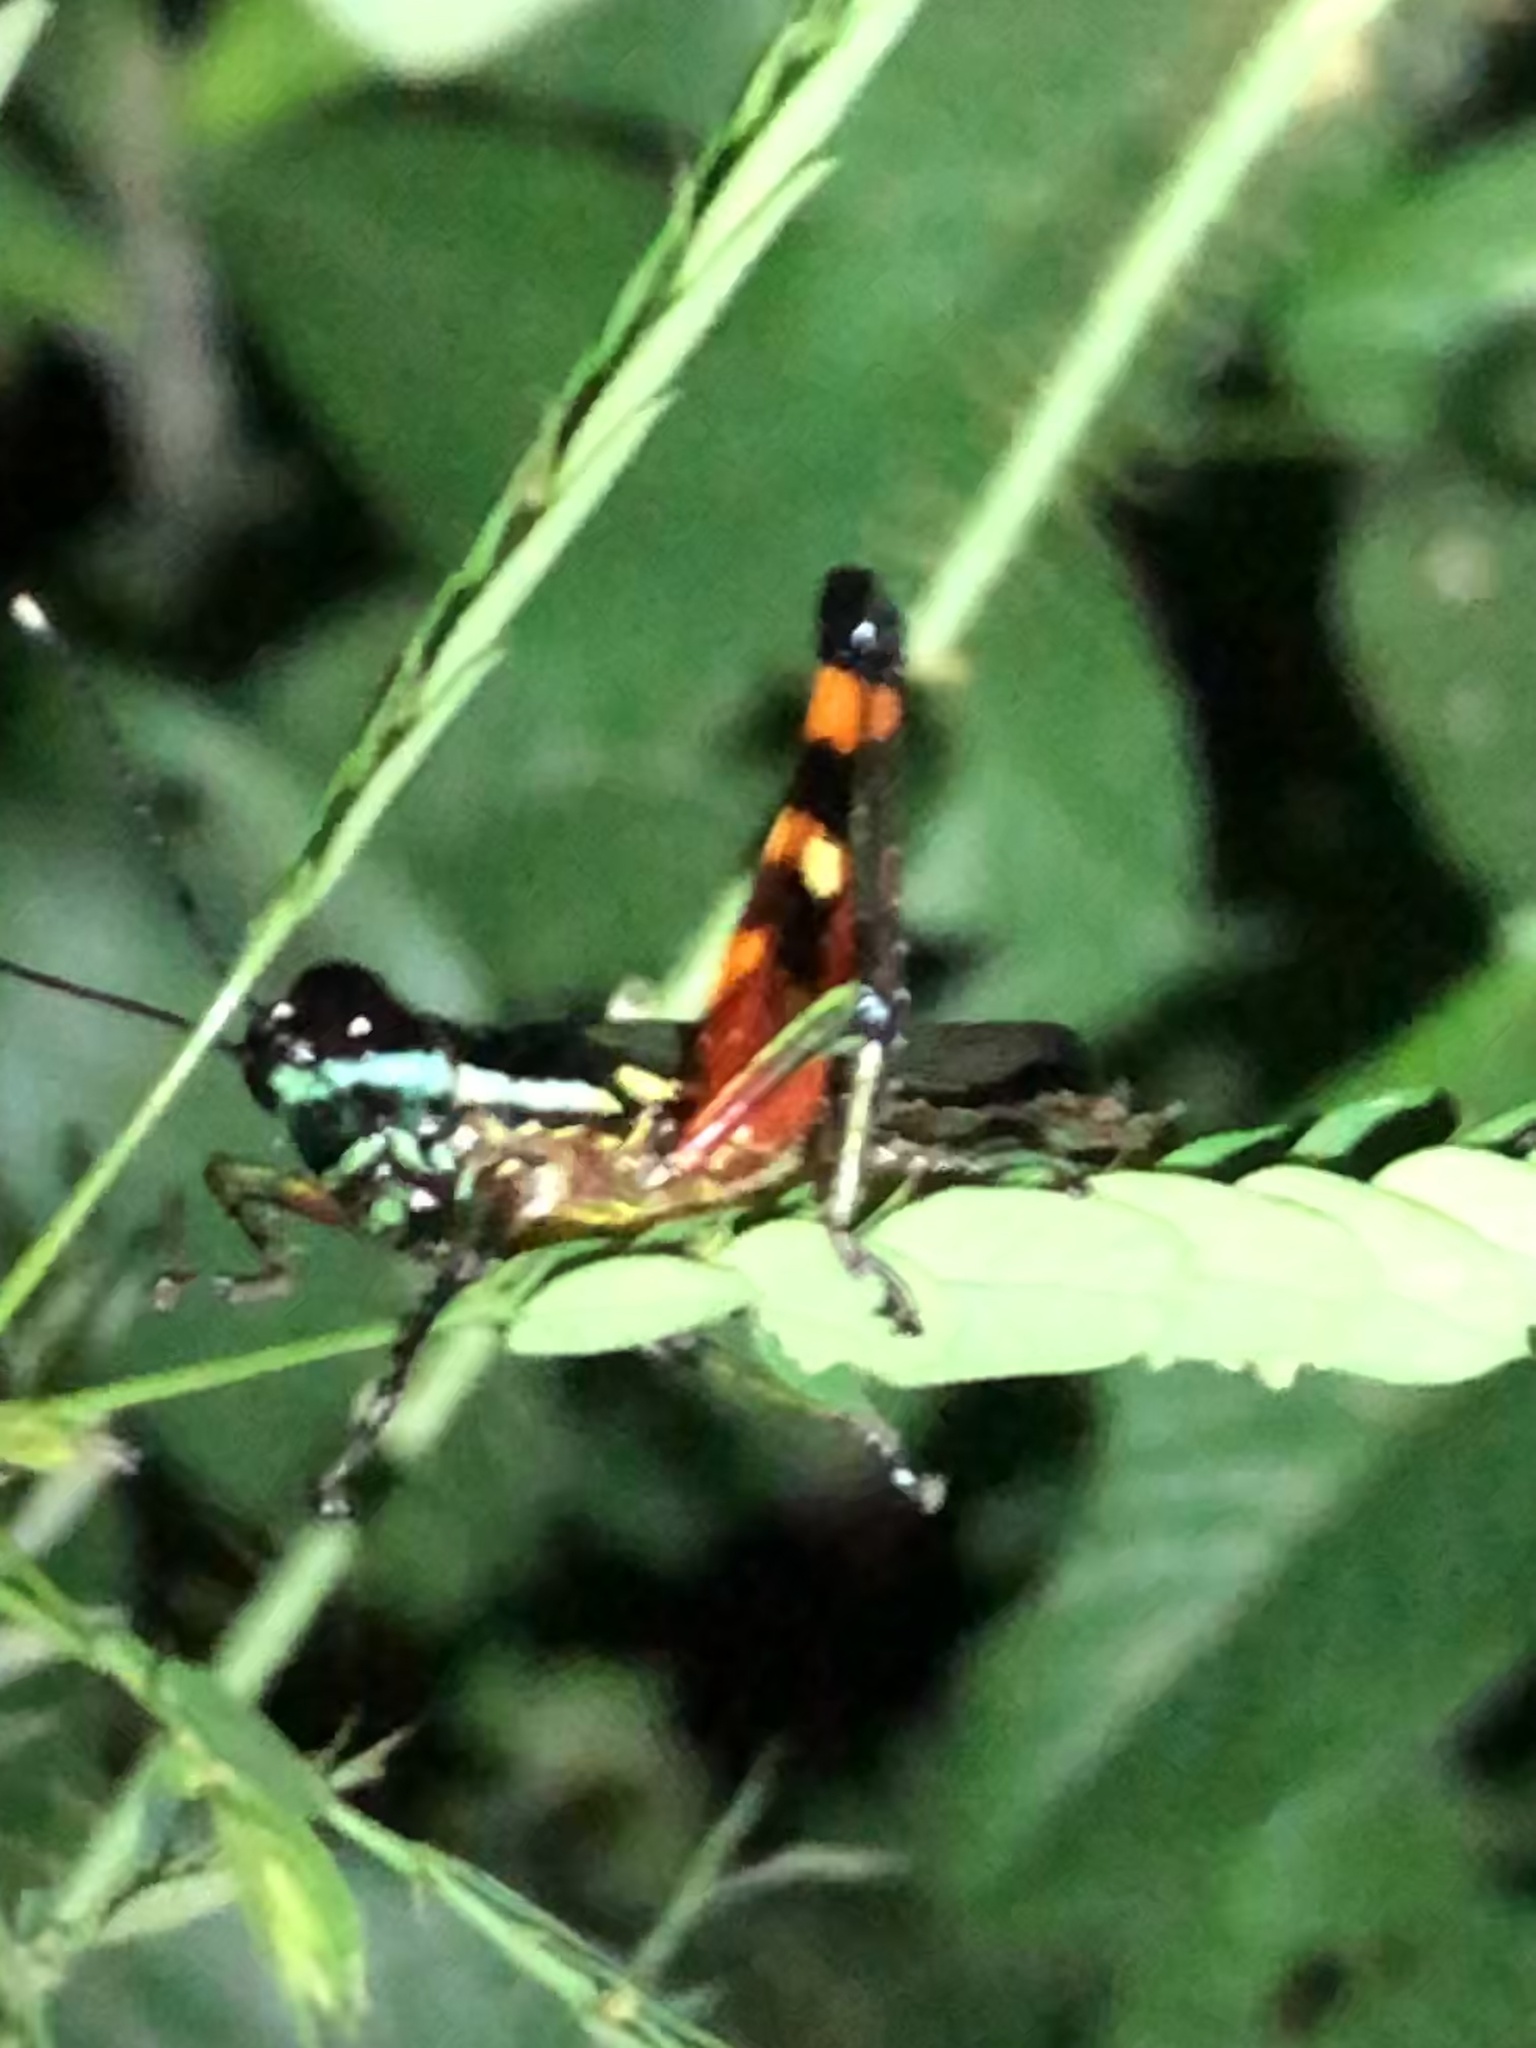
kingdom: Animalia
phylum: Arthropoda
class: Insecta
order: Orthoptera
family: Acrididae
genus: Tetrataenia
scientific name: Tetrataenia surinama
